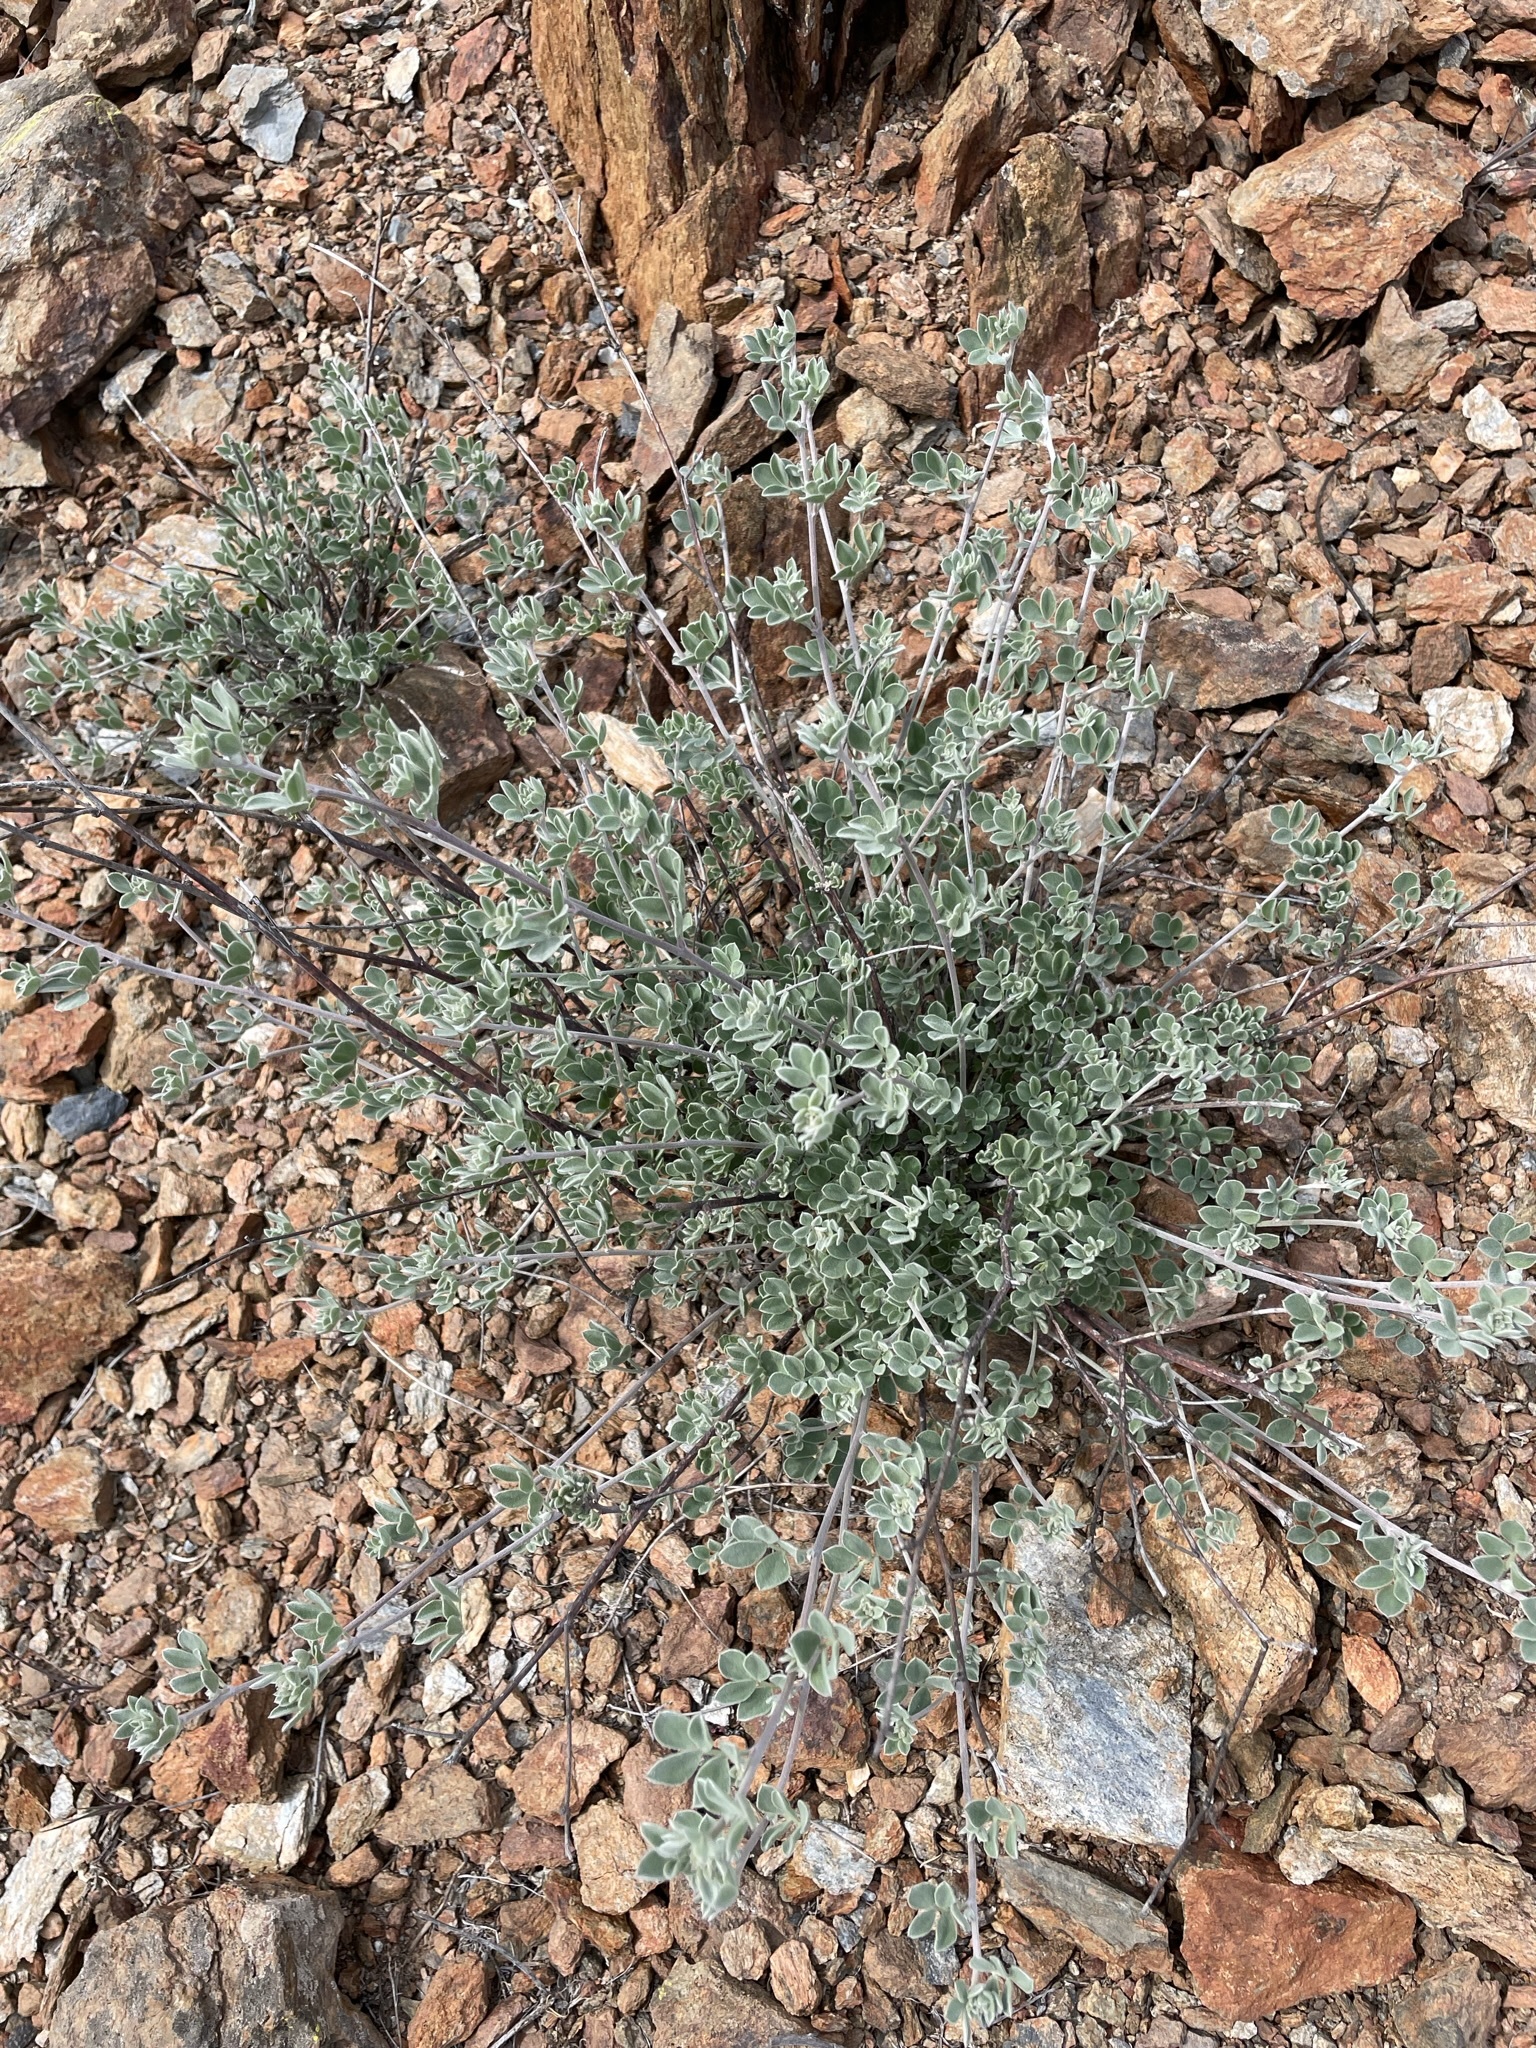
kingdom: Plantae
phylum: Tracheophyta
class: Magnoliopsida
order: Fabales
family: Fabaceae
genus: Acmispon
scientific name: Acmispon argophyllus
